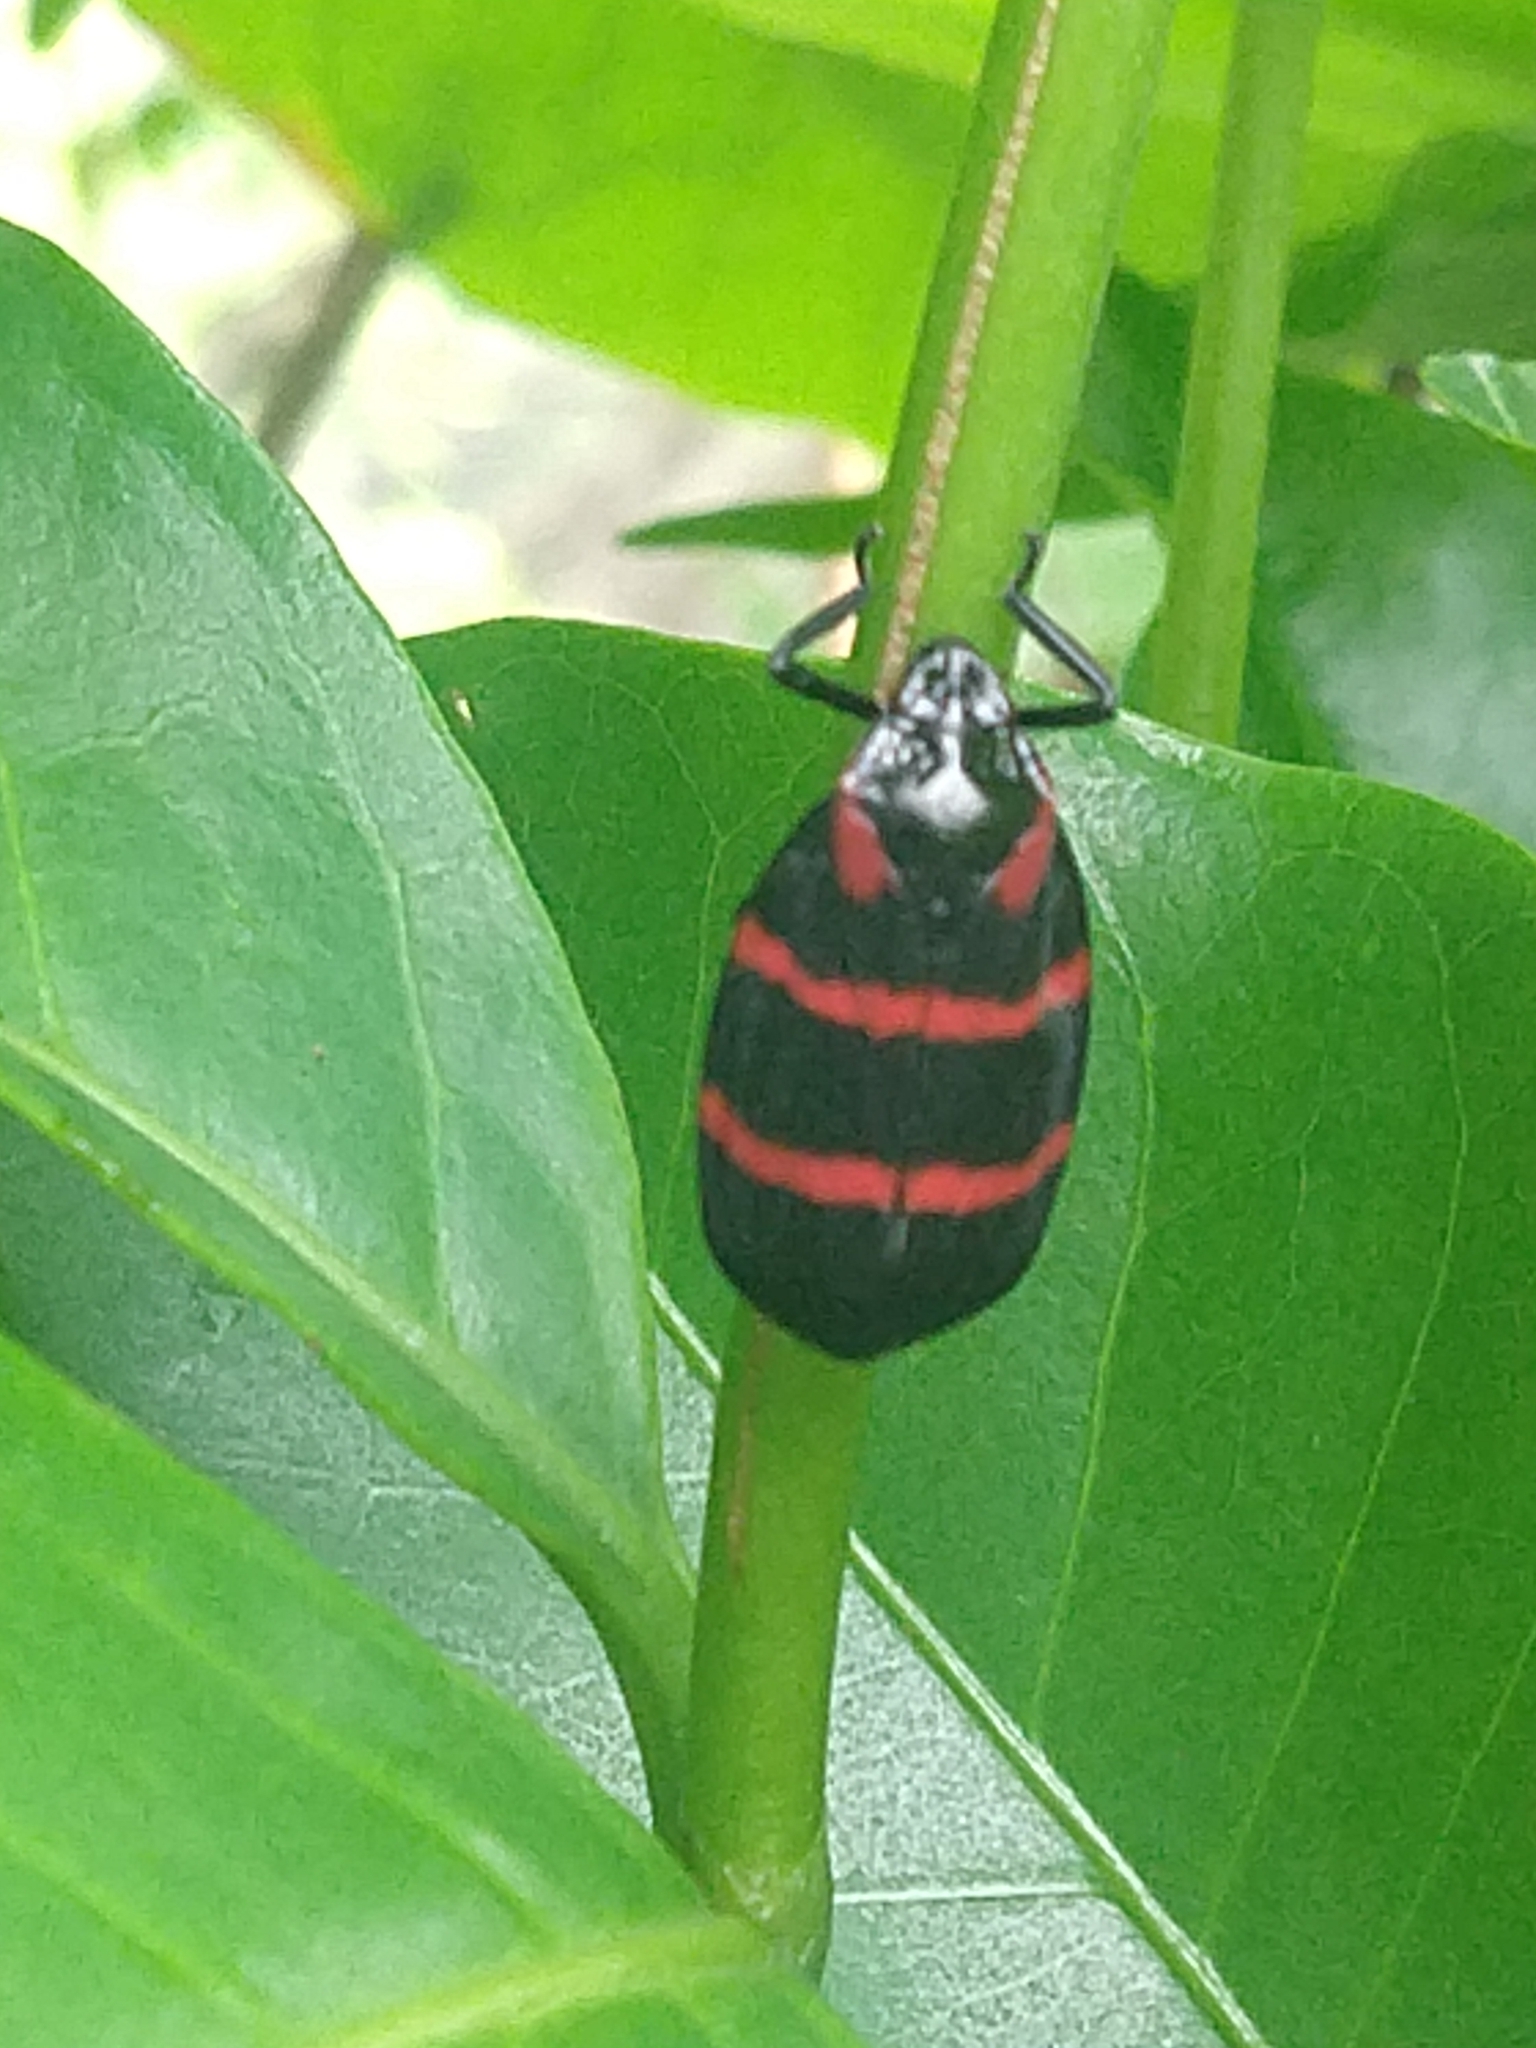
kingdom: Animalia
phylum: Arthropoda
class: Insecta
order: Hemiptera
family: Cercopidae
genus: Huaina
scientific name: Huaina inca
